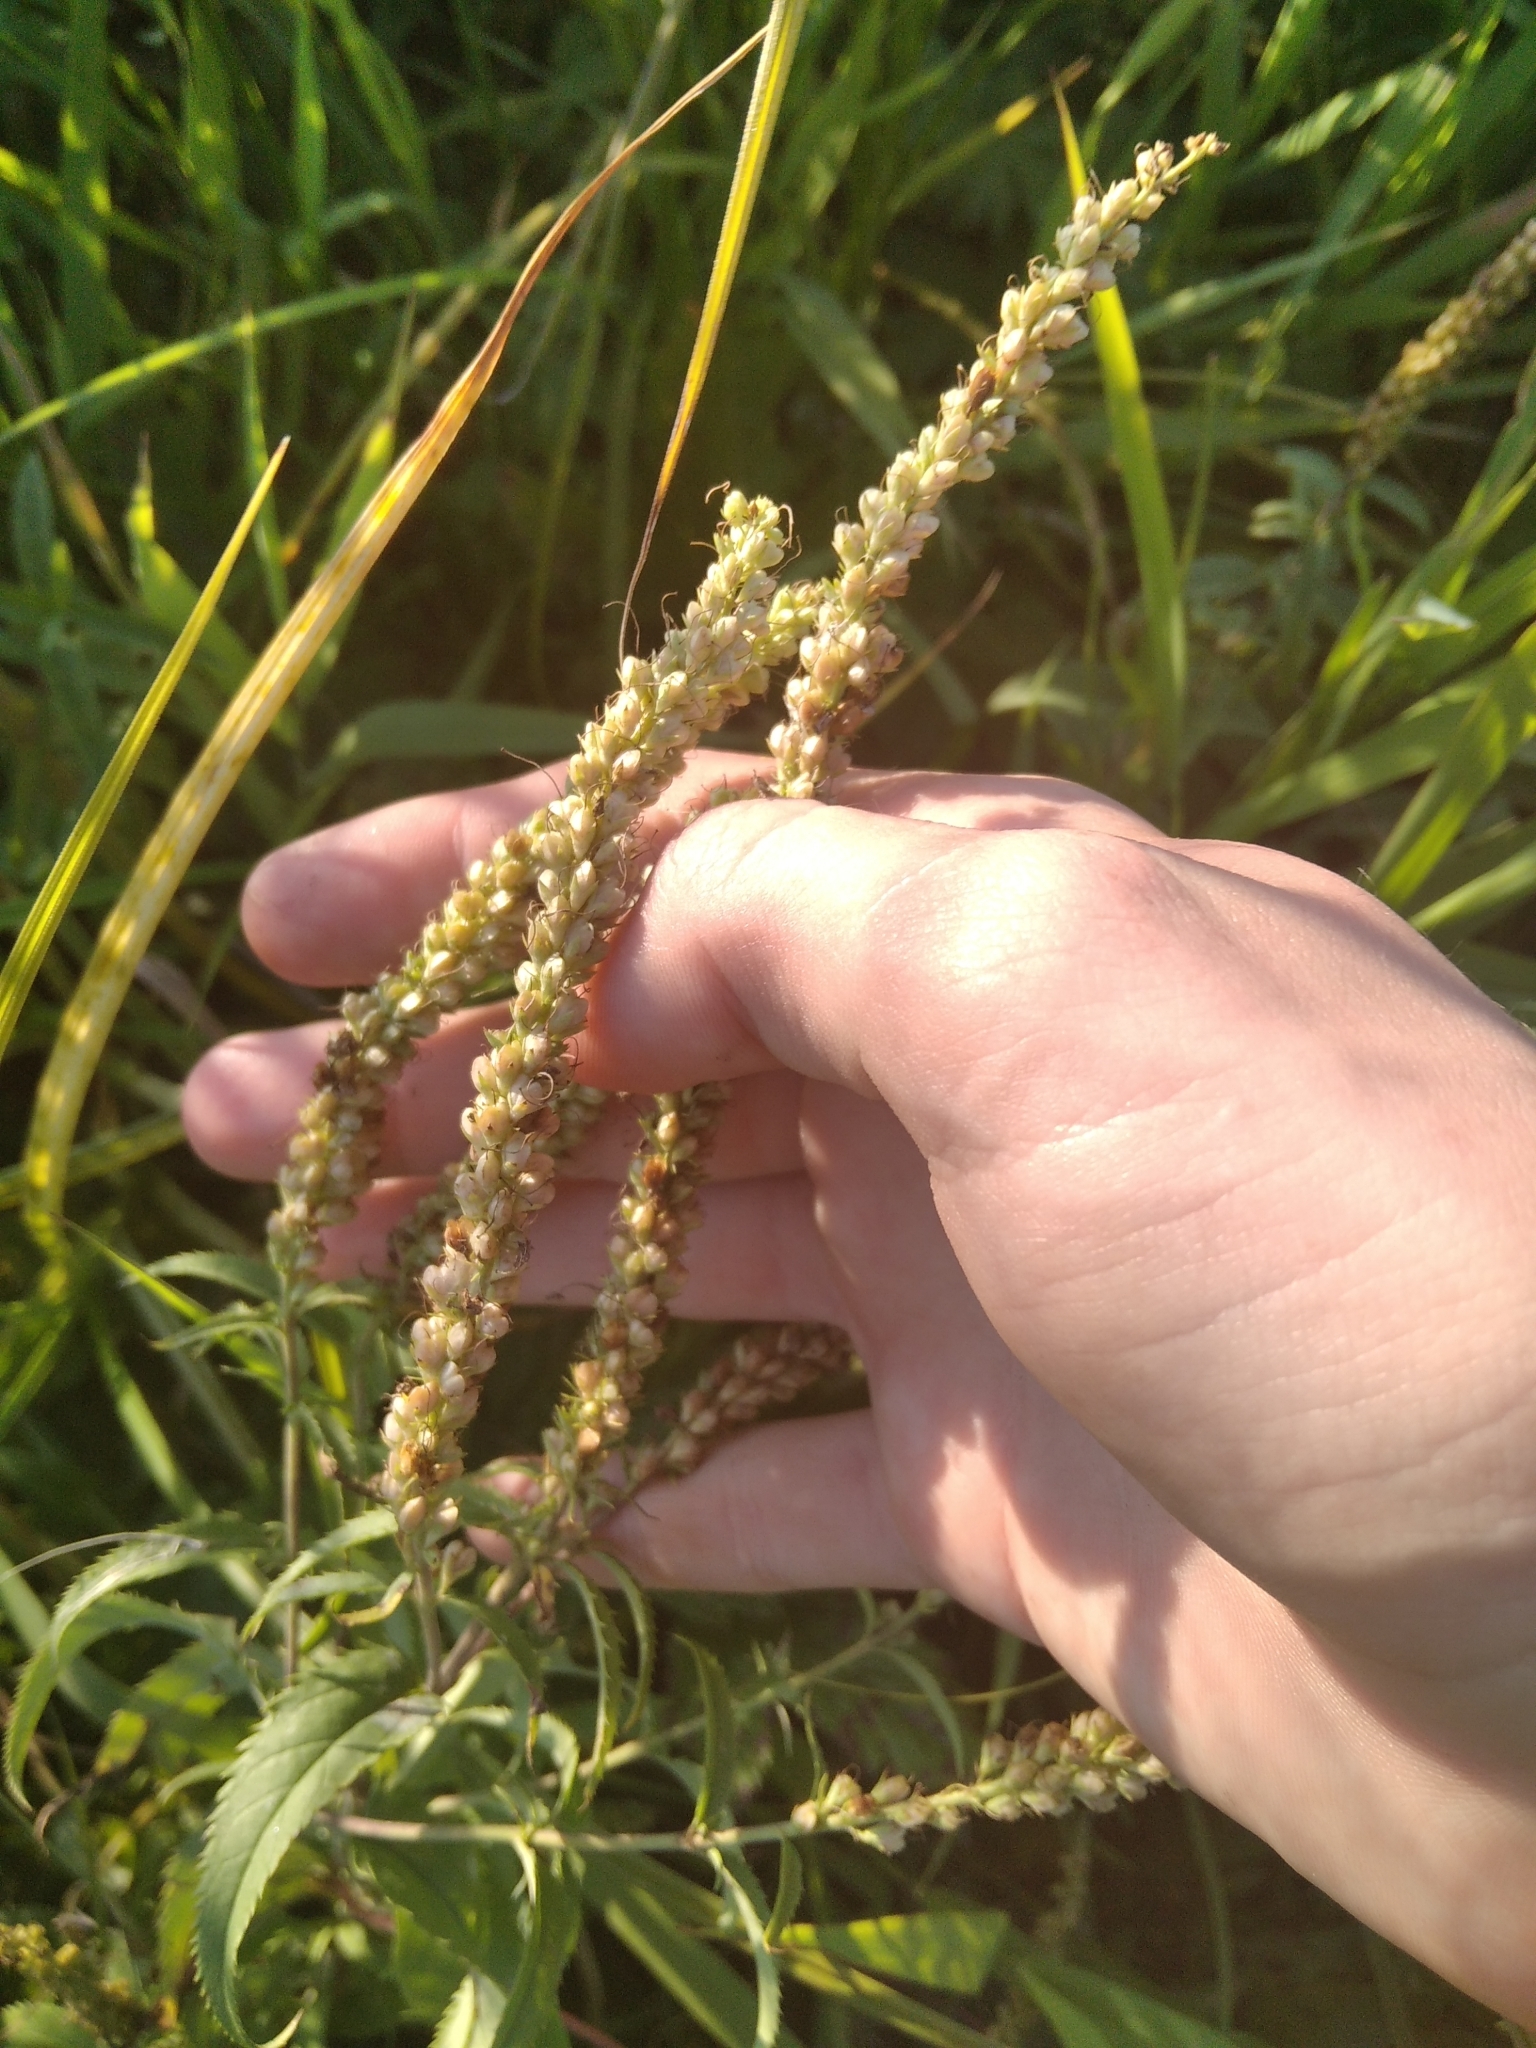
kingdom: Plantae
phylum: Tracheophyta
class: Magnoliopsida
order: Lamiales
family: Plantaginaceae
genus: Veronica
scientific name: Veronica longifolia
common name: Garden speedwell
